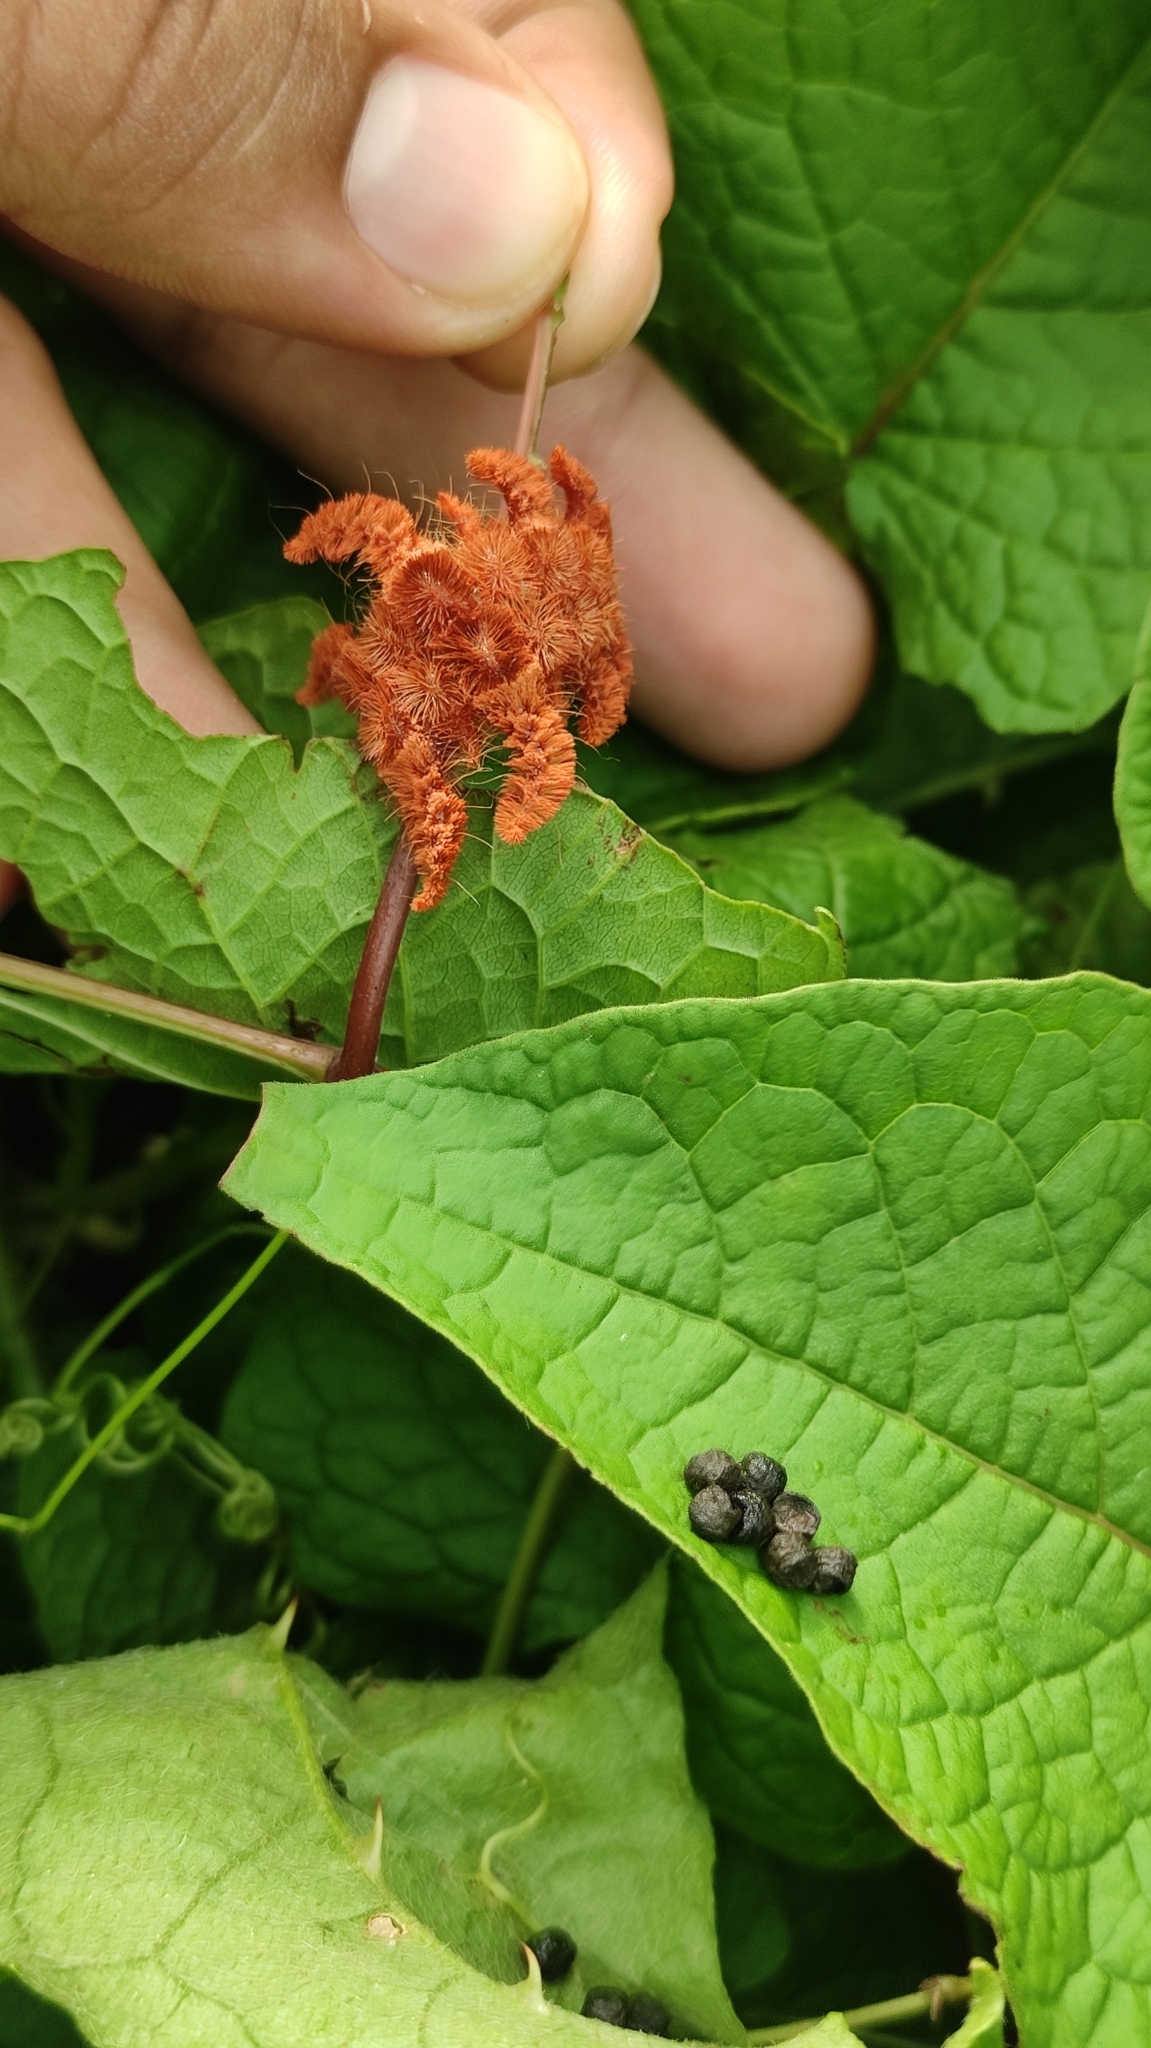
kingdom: Animalia
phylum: Arthropoda
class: Insecta
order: Lepidoptera
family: Limacodidae
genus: Phobetron
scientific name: Phobetron hipparchia
